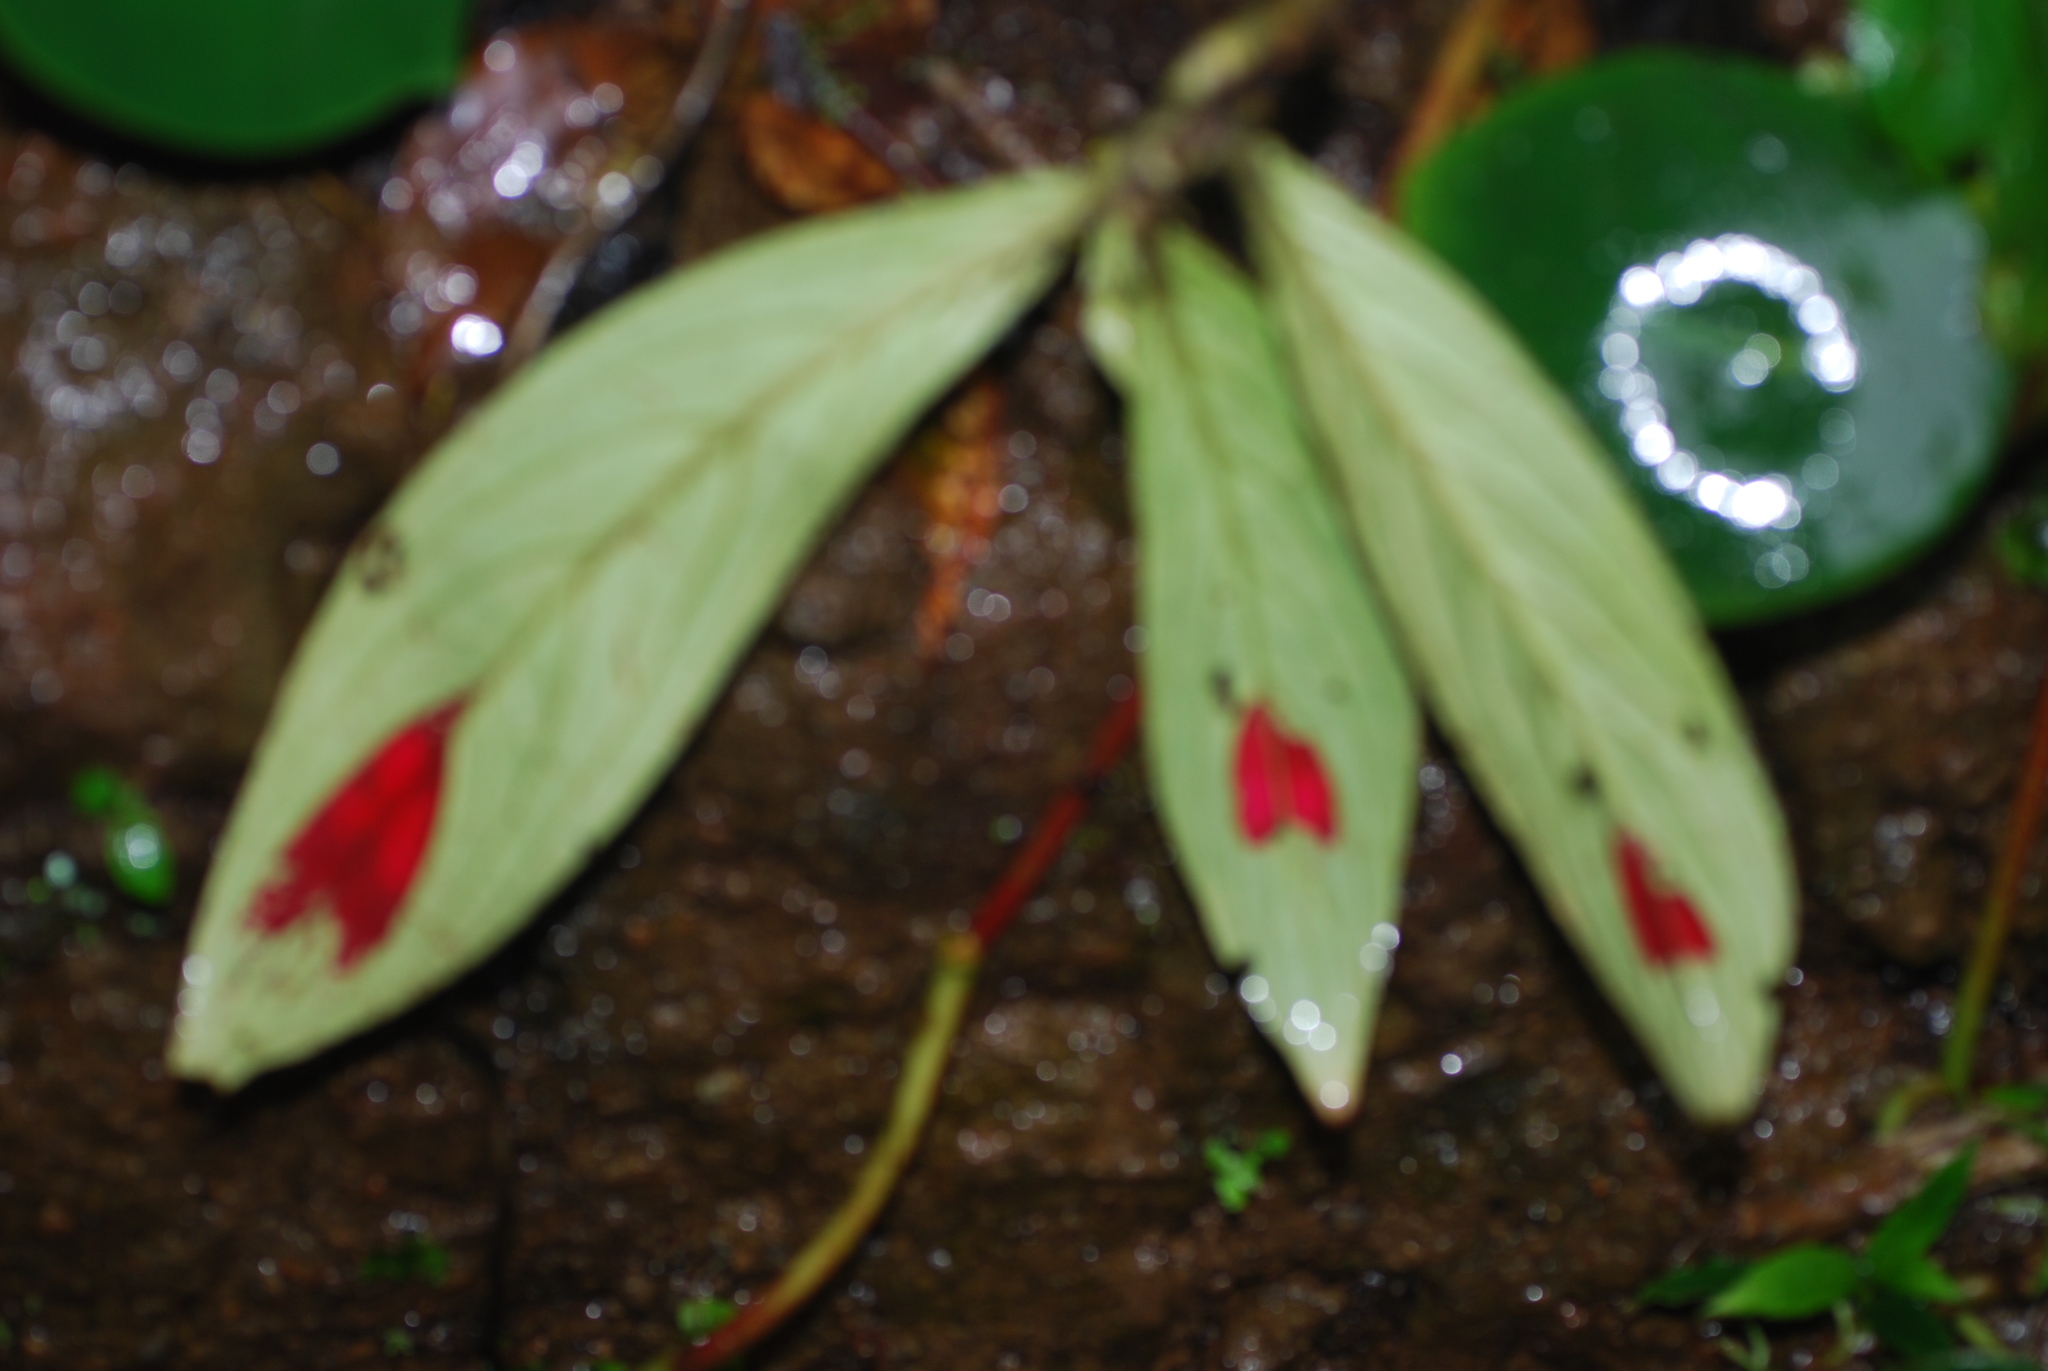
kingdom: Plantae
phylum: Tracheophyta
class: Magnoliopsida
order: Lamiales
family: Gesneriaceae
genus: Columnea
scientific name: Columnea consanguinea
